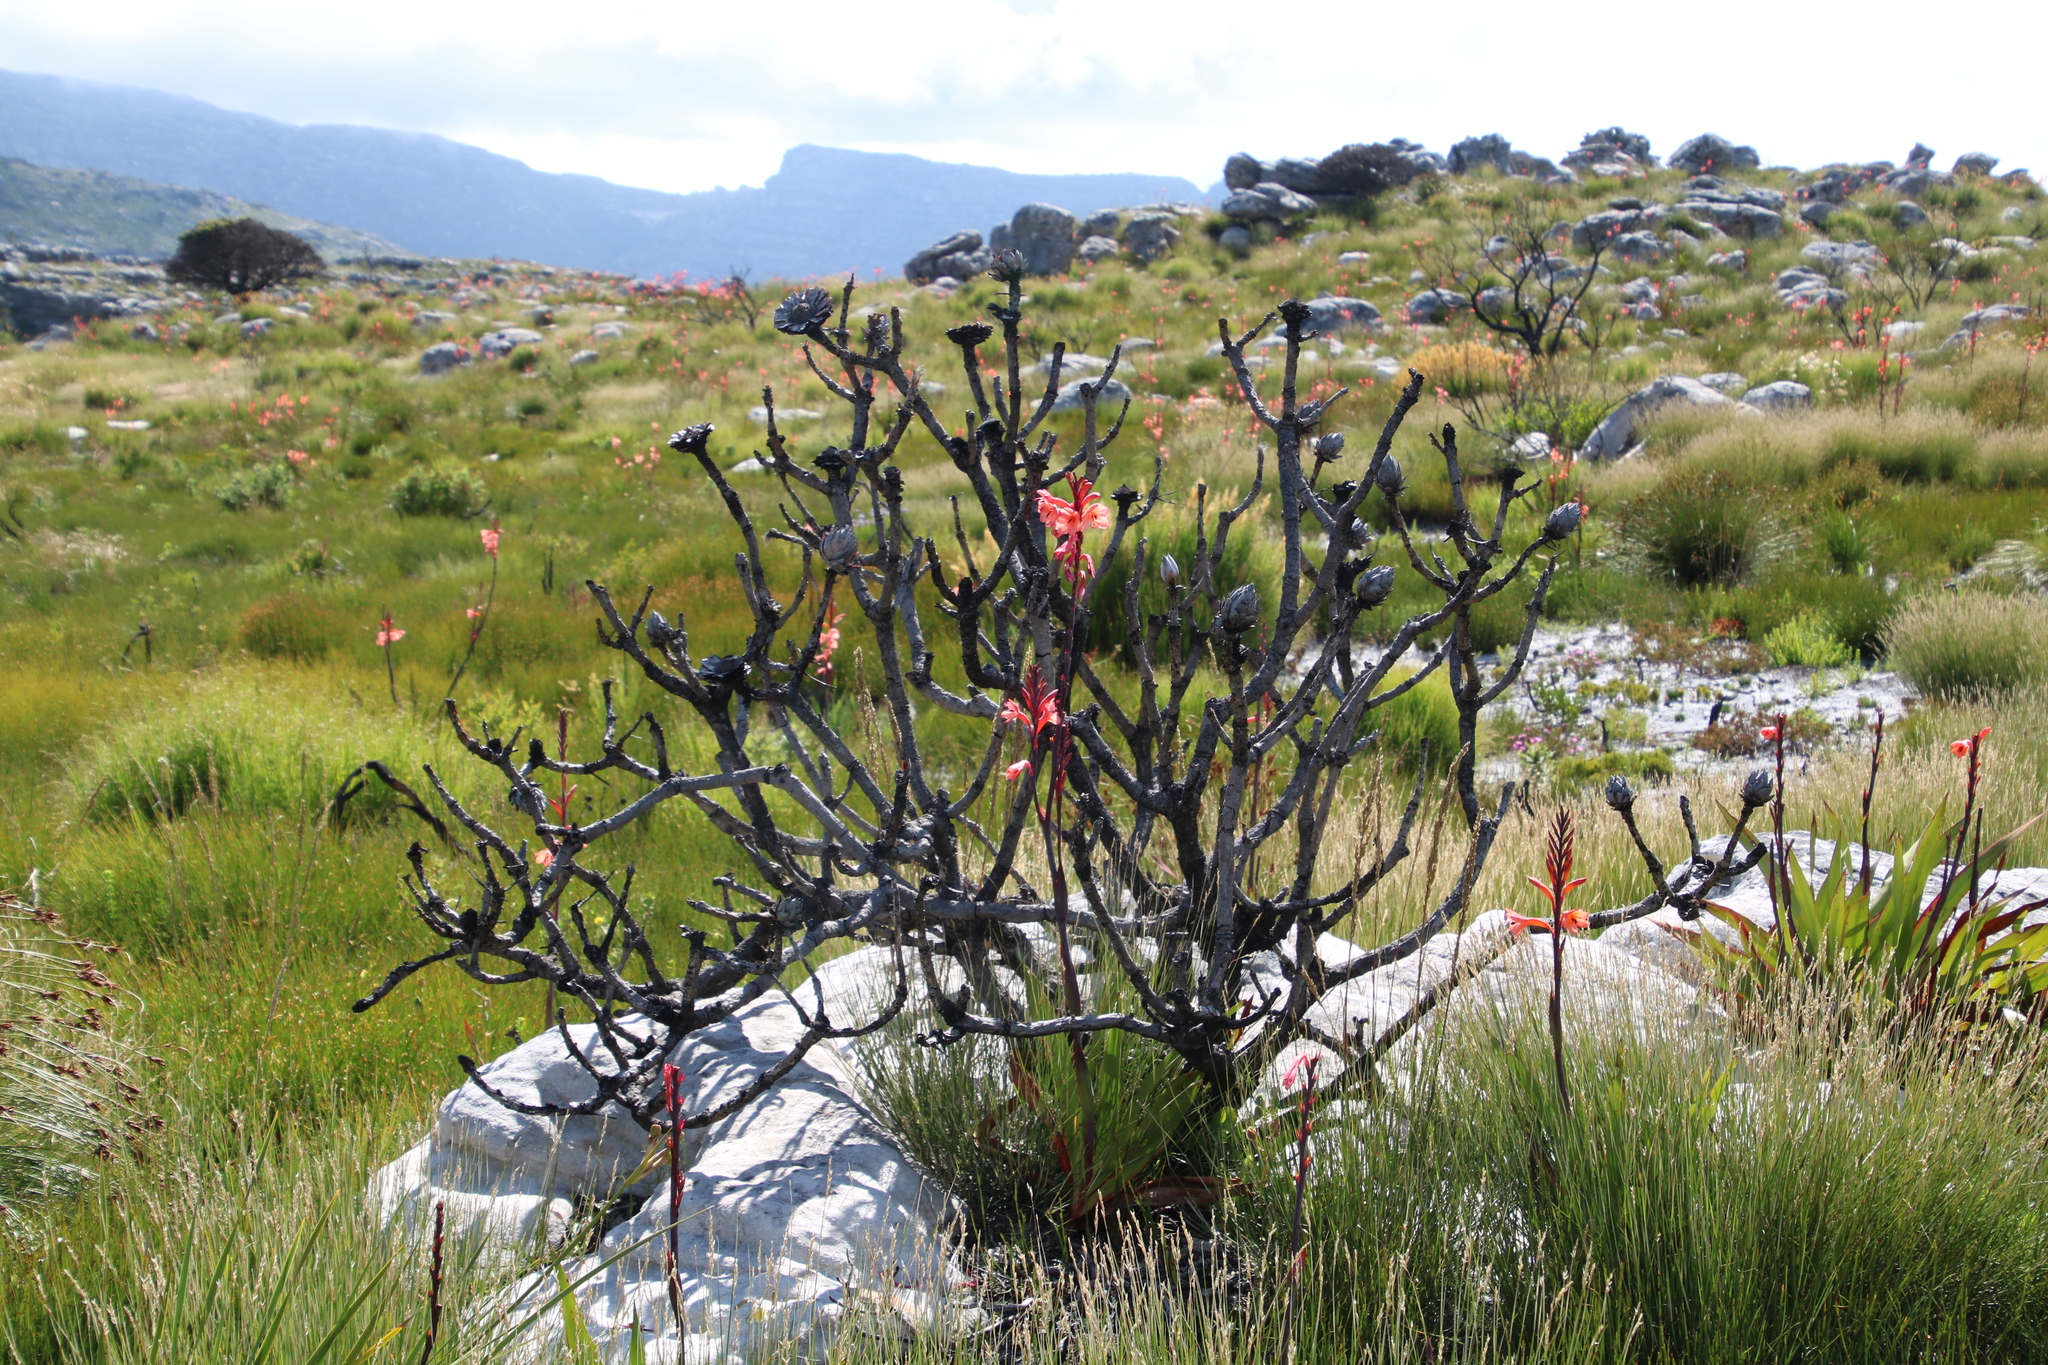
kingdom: Plantae
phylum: Tracheophyta
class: Liliopsida
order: Asparagales
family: Iridaceae
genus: Watsonia
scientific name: Watsonia tabularis
